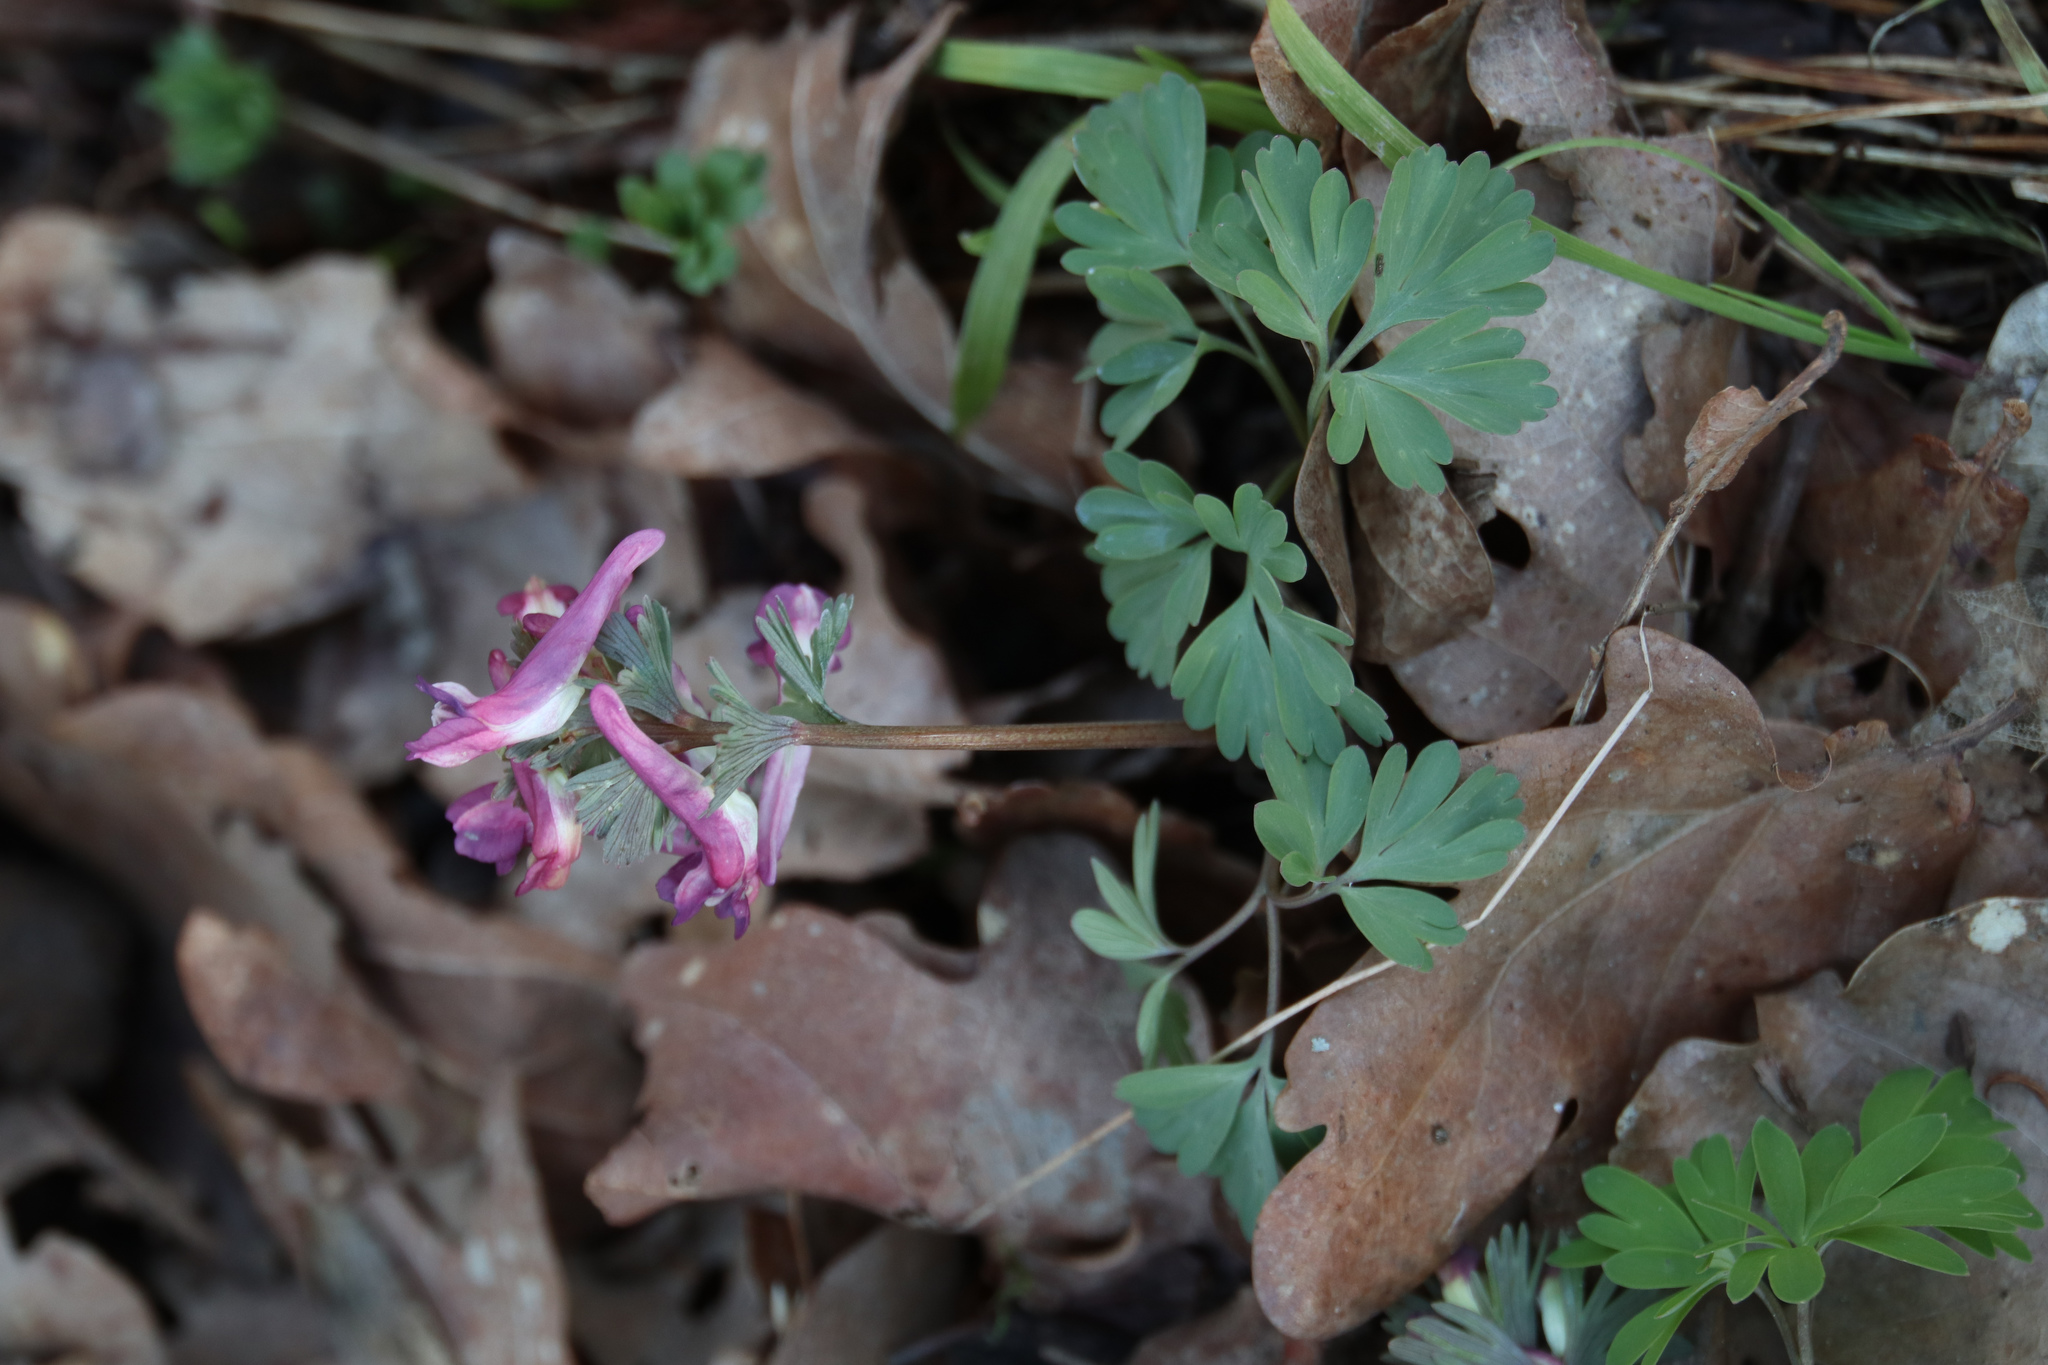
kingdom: Plantae
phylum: Tracheophyta
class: Magnoliopsida
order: Ranunculales
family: Papaveraceae
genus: Corydalis
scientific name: Corydalis solida
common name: Bird-in-a-bush
